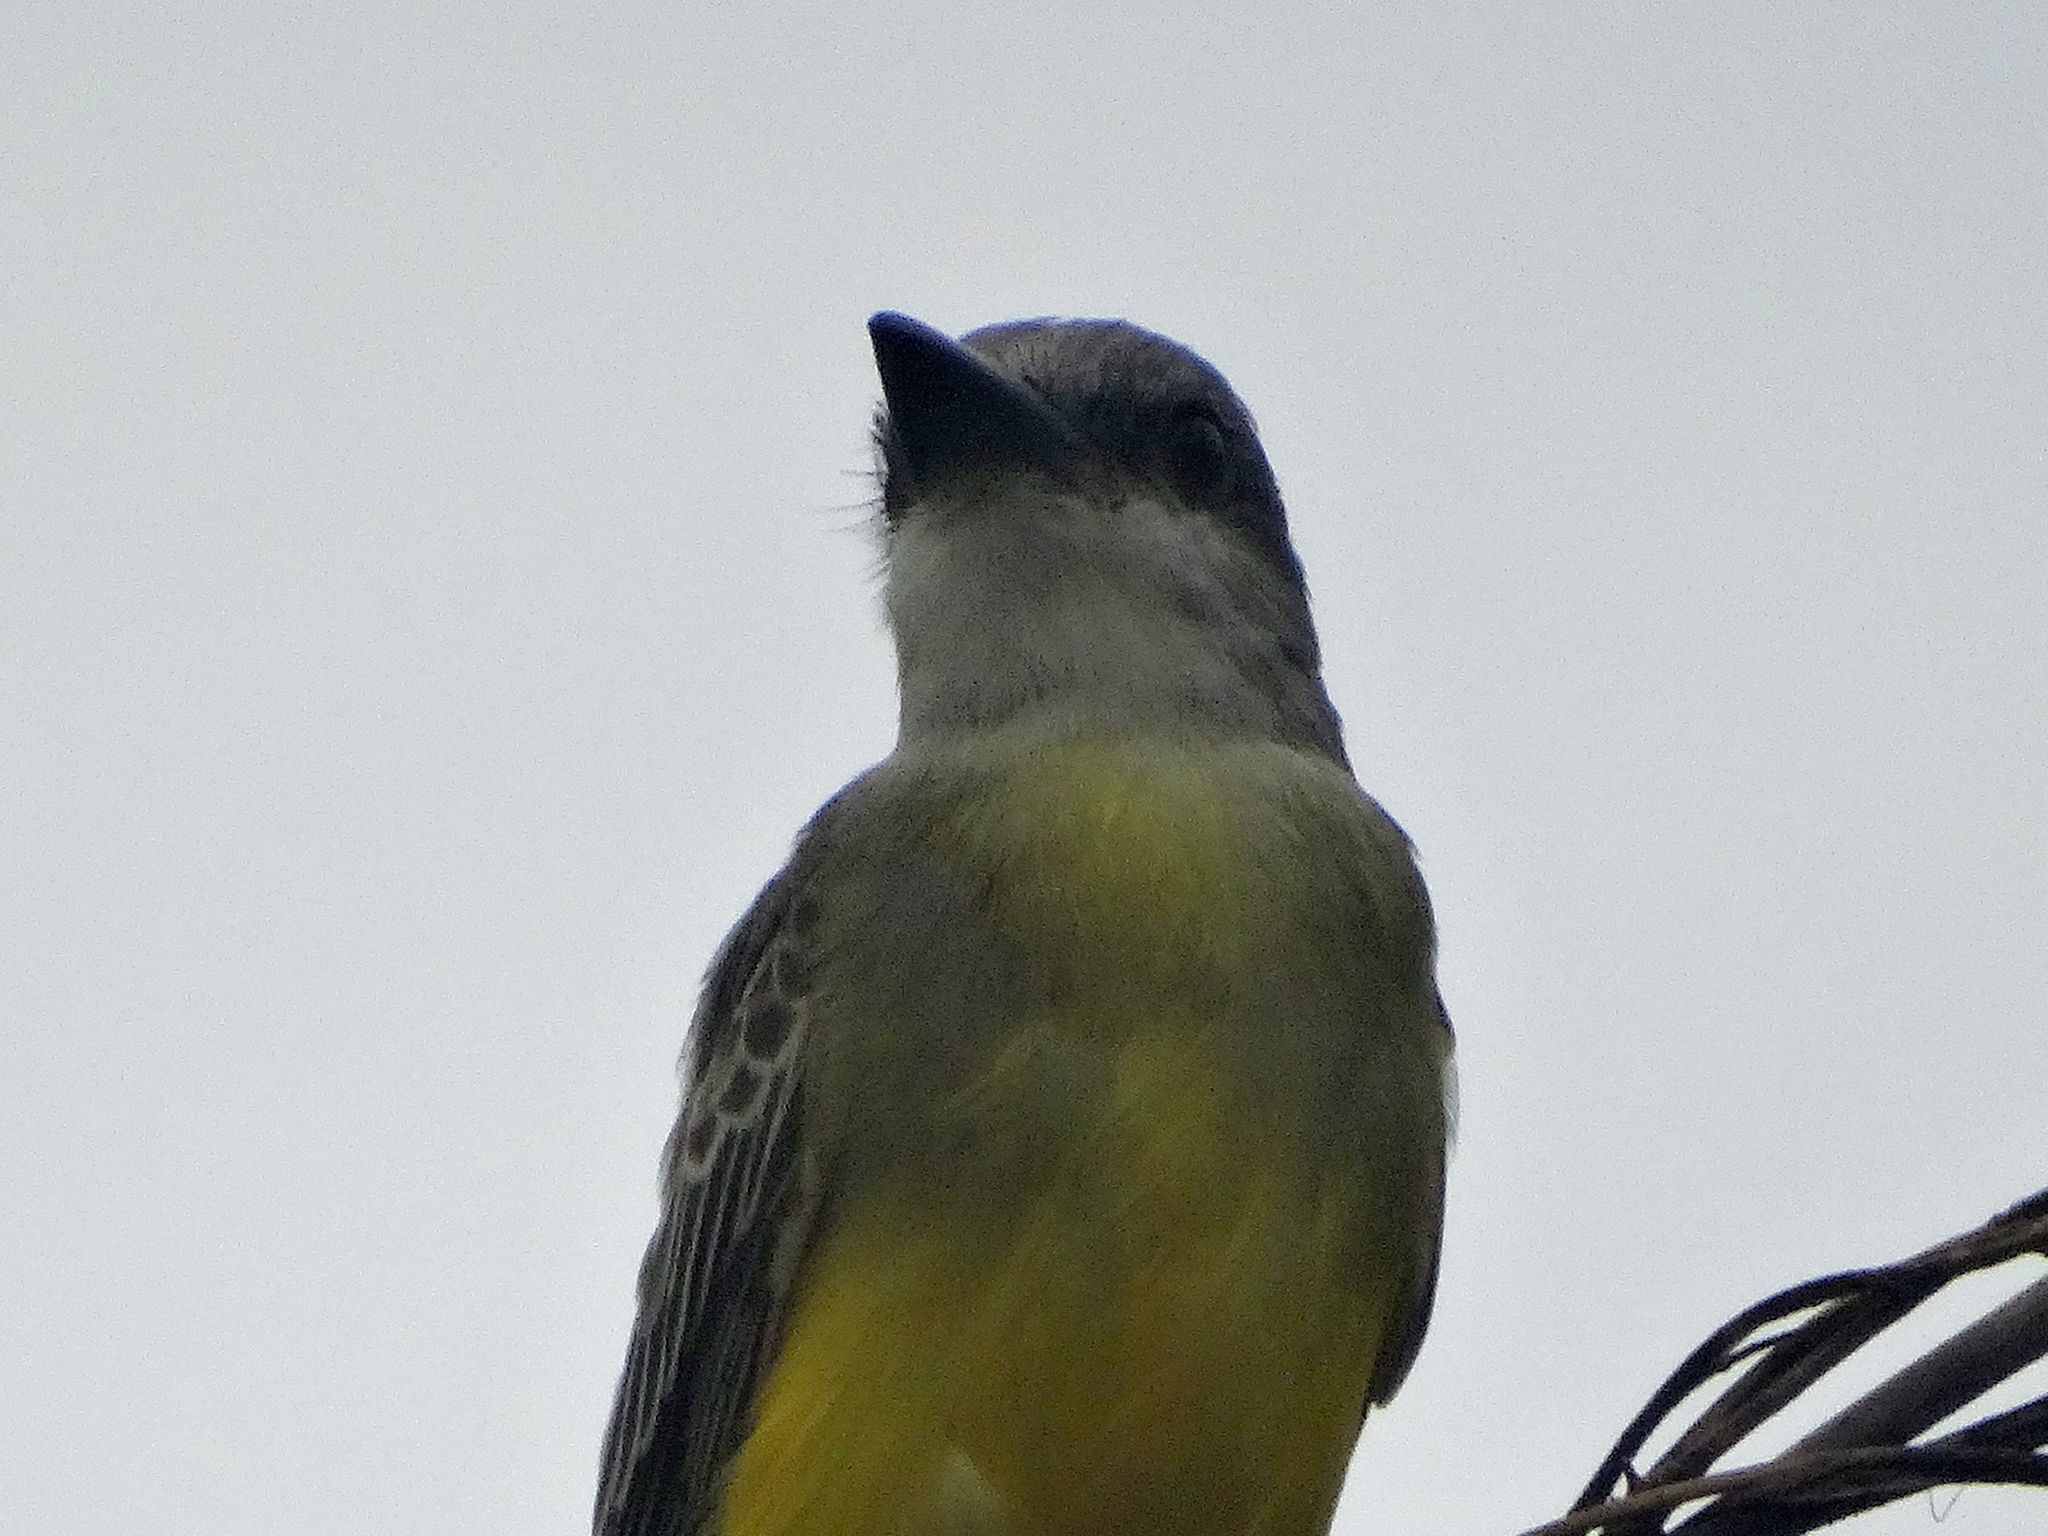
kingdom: Animalia
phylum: Chordata
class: Aves
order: Passeriformes
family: Tyrannidae
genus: Tyrannus
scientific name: Tyrannus melancholicus
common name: Tropical kingbird
